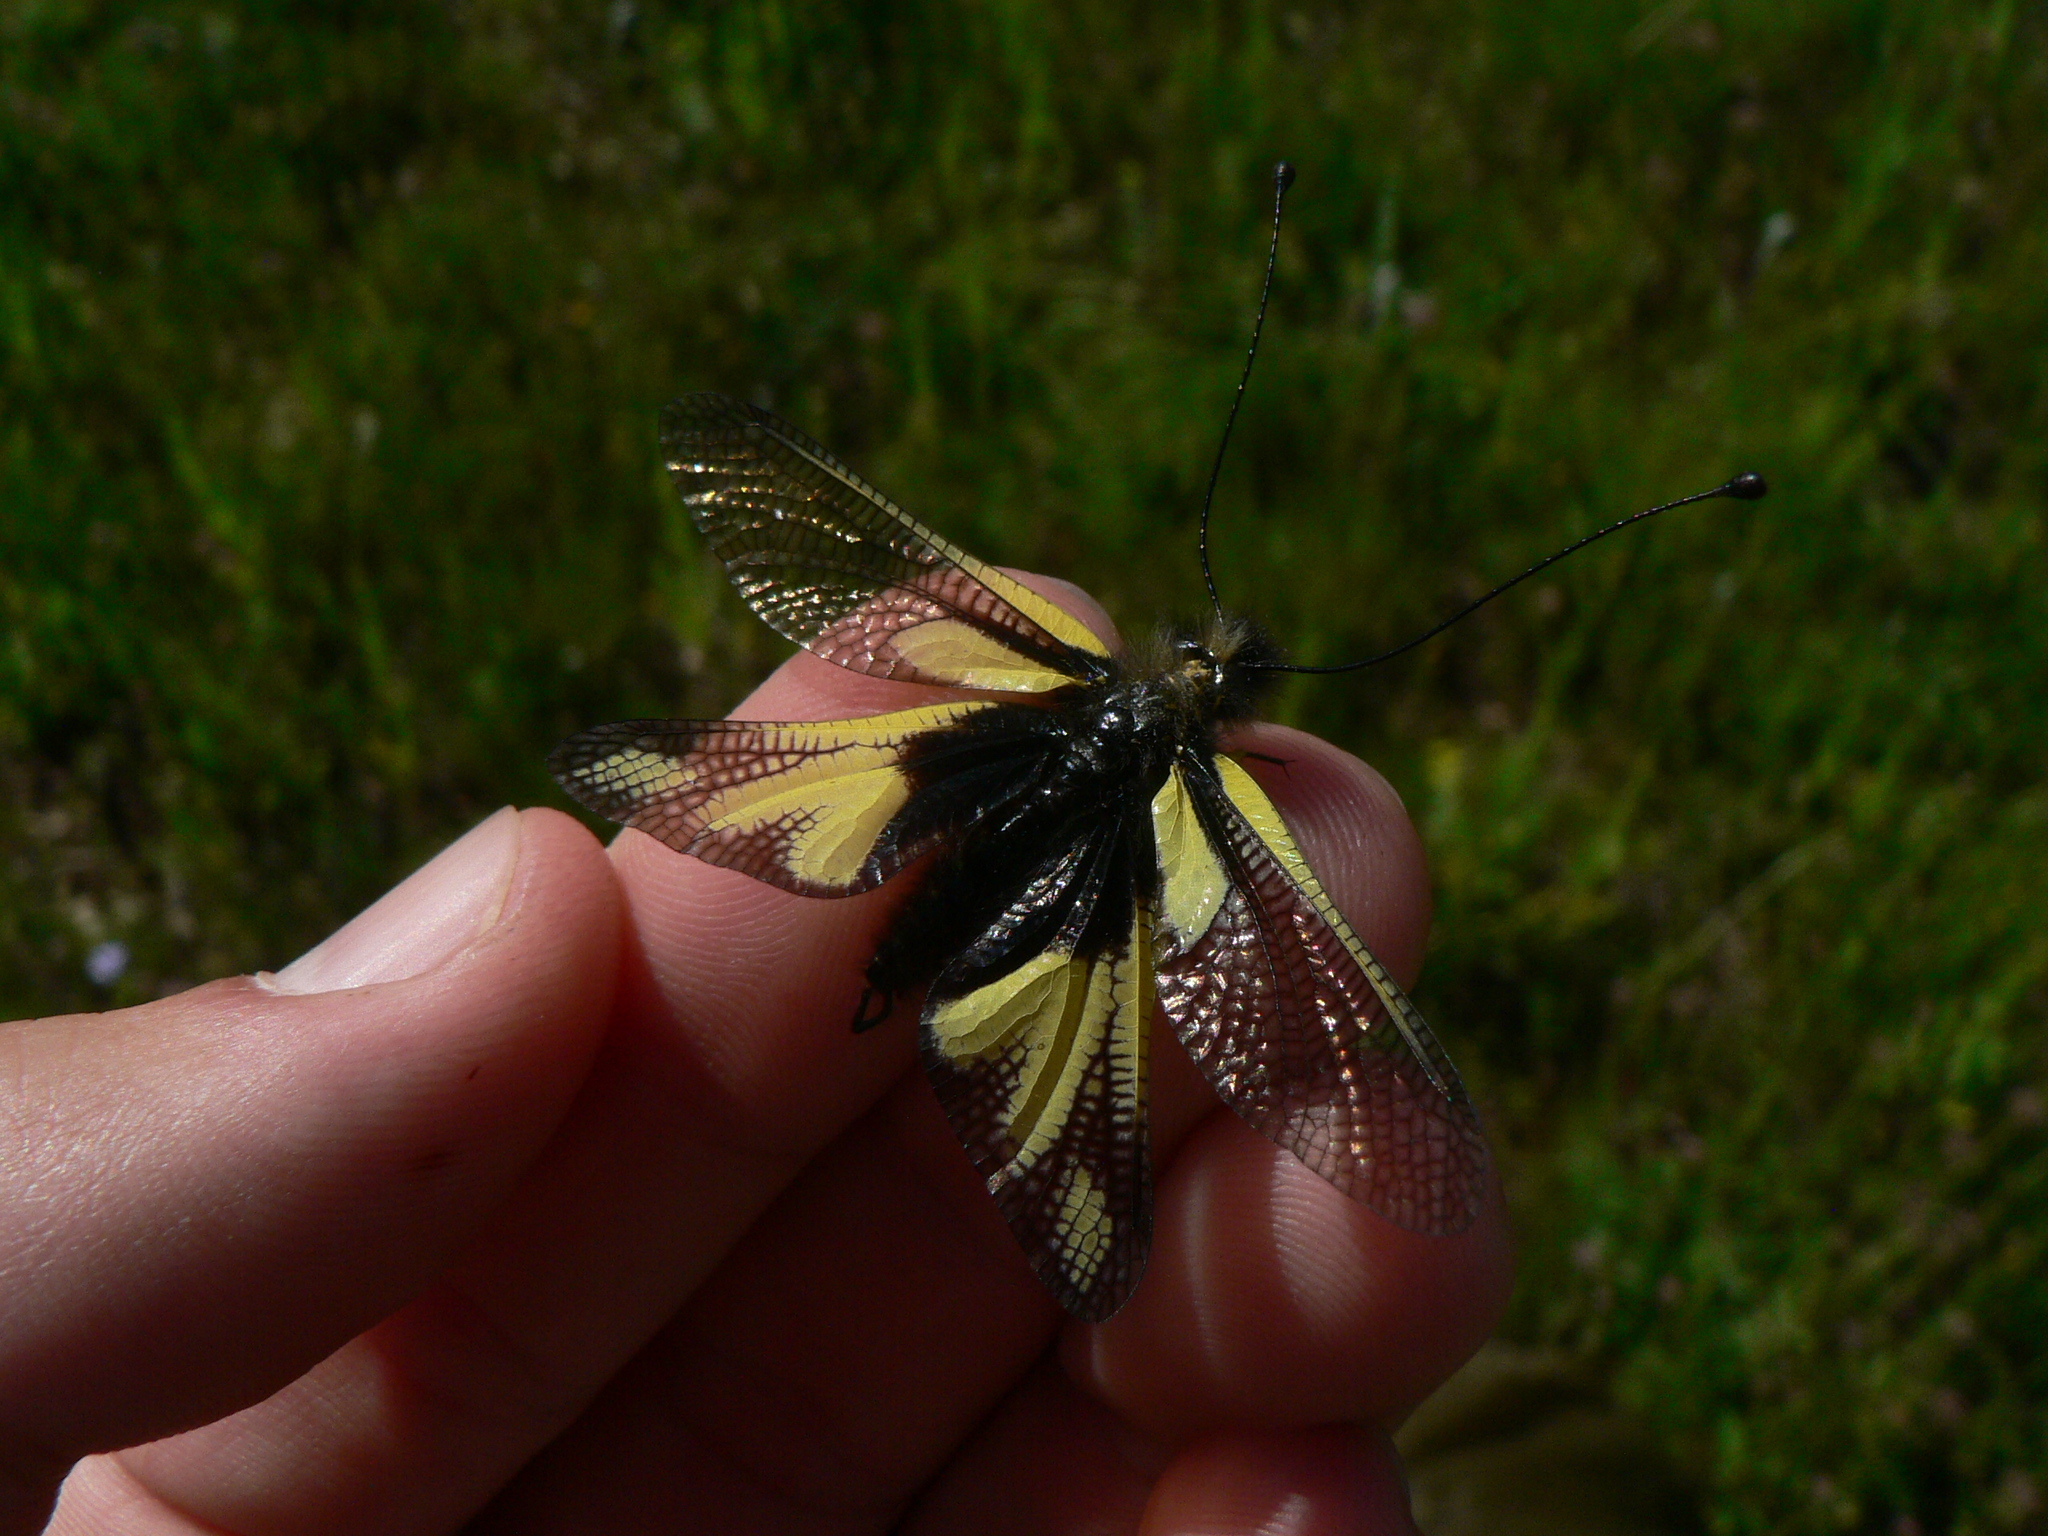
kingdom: Animalia
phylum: Arthropoda
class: Insecta
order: Neuroptera
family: Ascalaphidae
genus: Libelloides
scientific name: Libelloides coccajus
